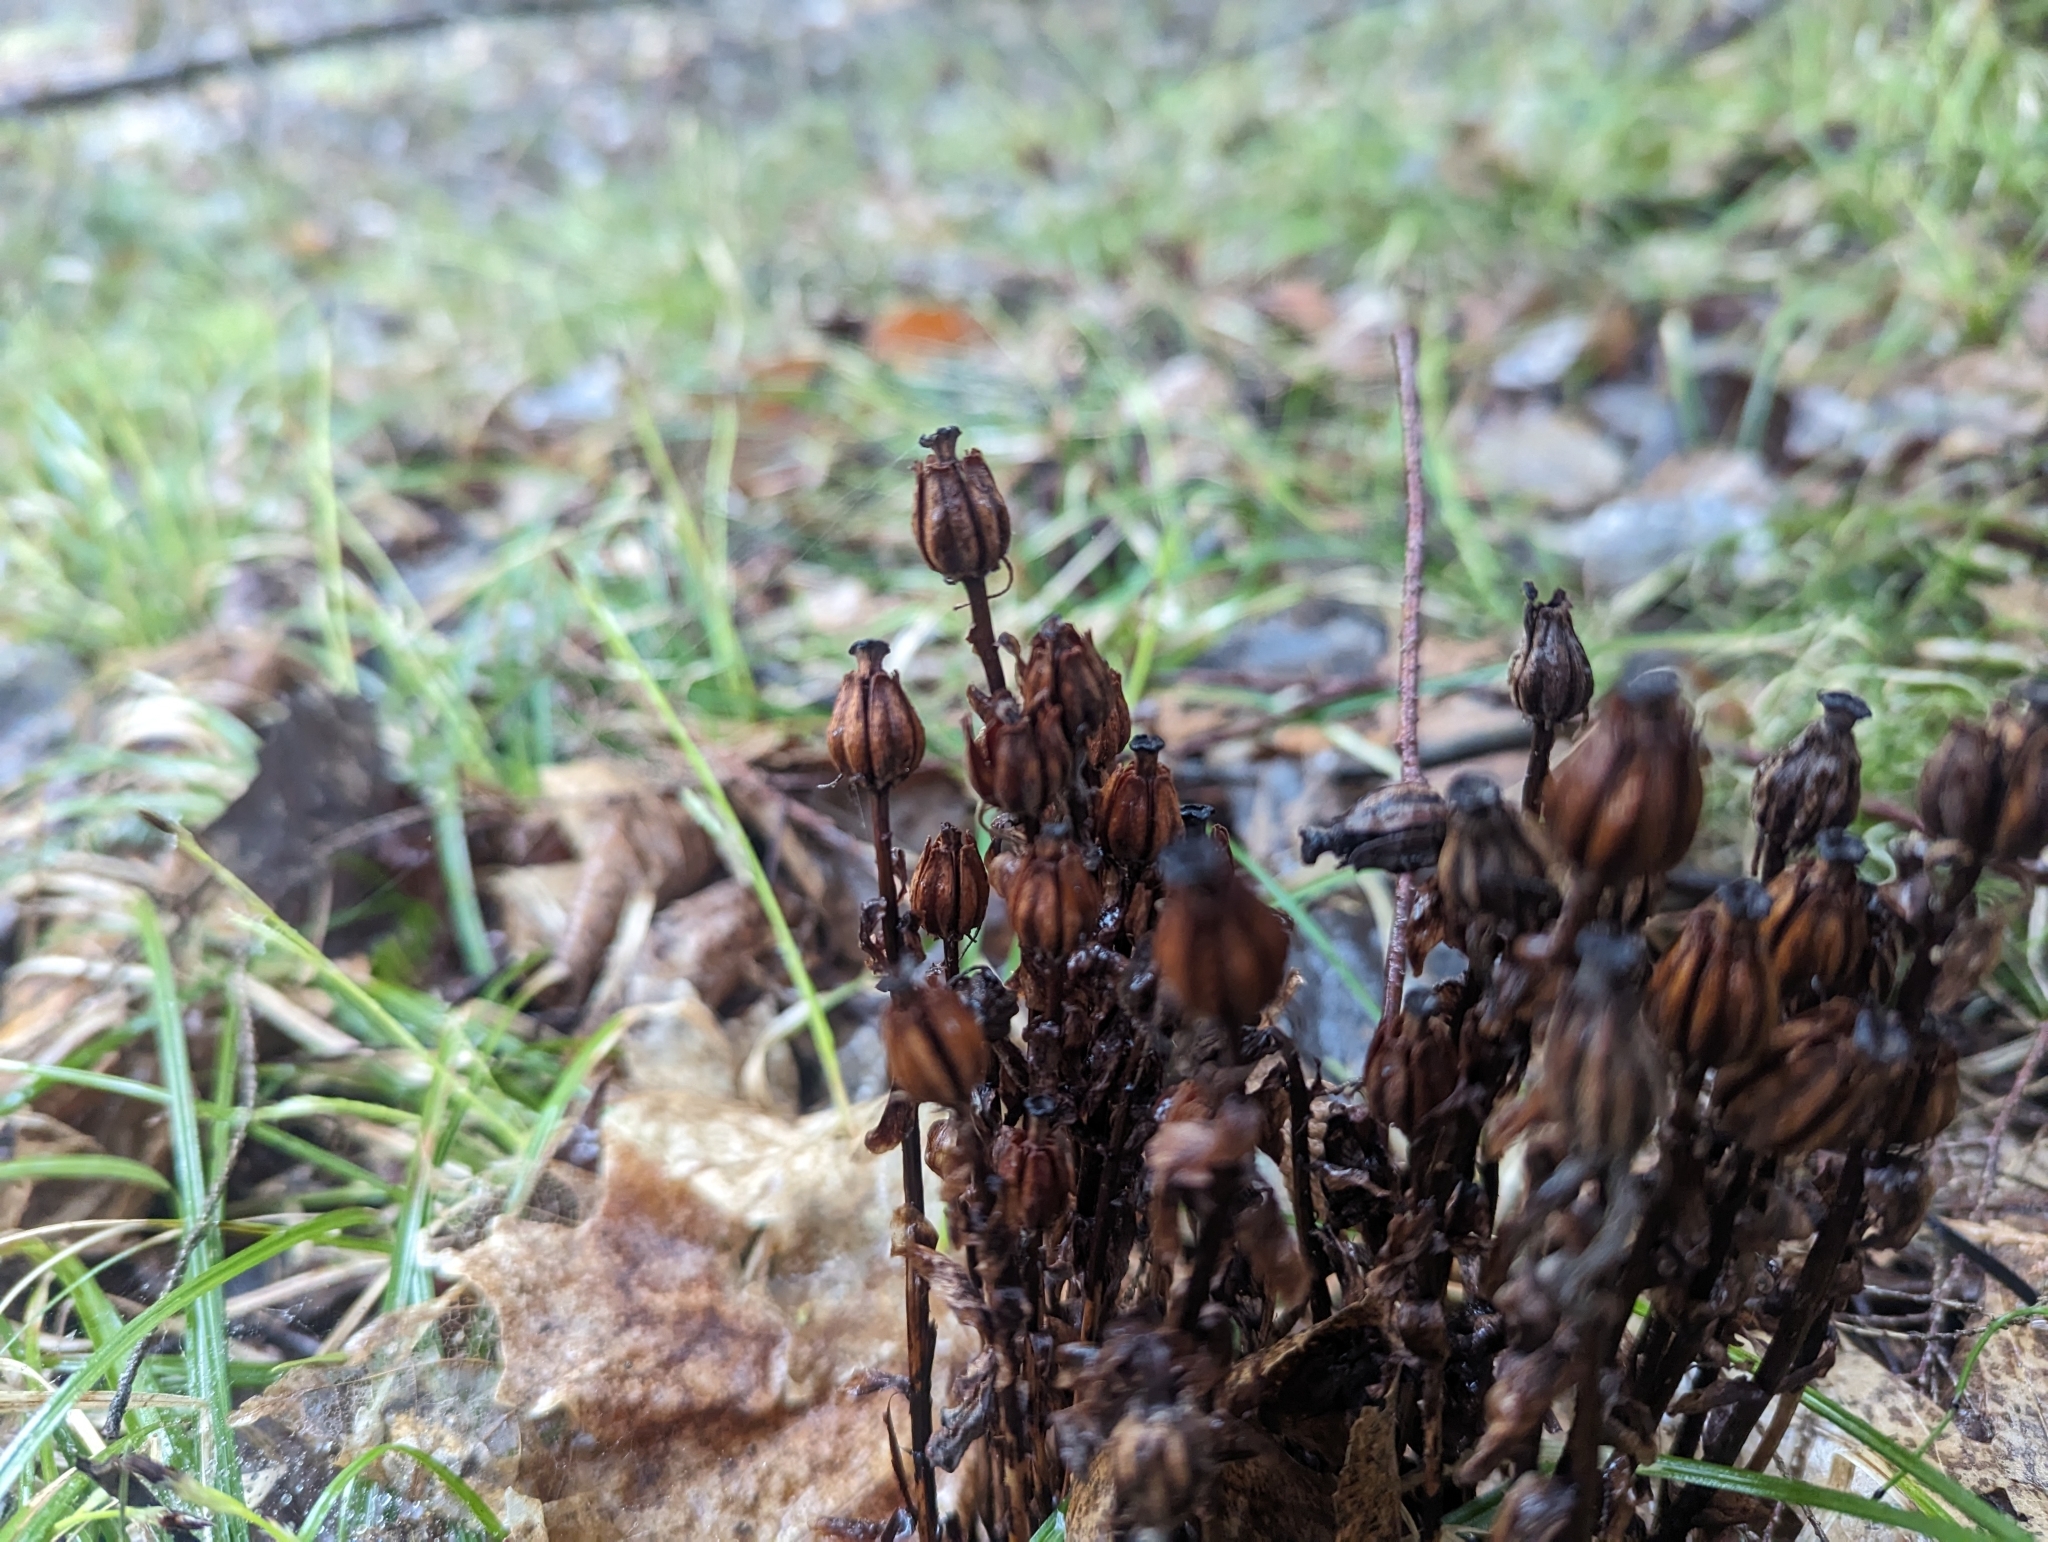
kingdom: Plantae
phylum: Tracheophyta
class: Magnoliopsida
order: Ericales
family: Ericaceae
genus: Monotropa
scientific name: Monotropa uniflora
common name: Convulsion root
